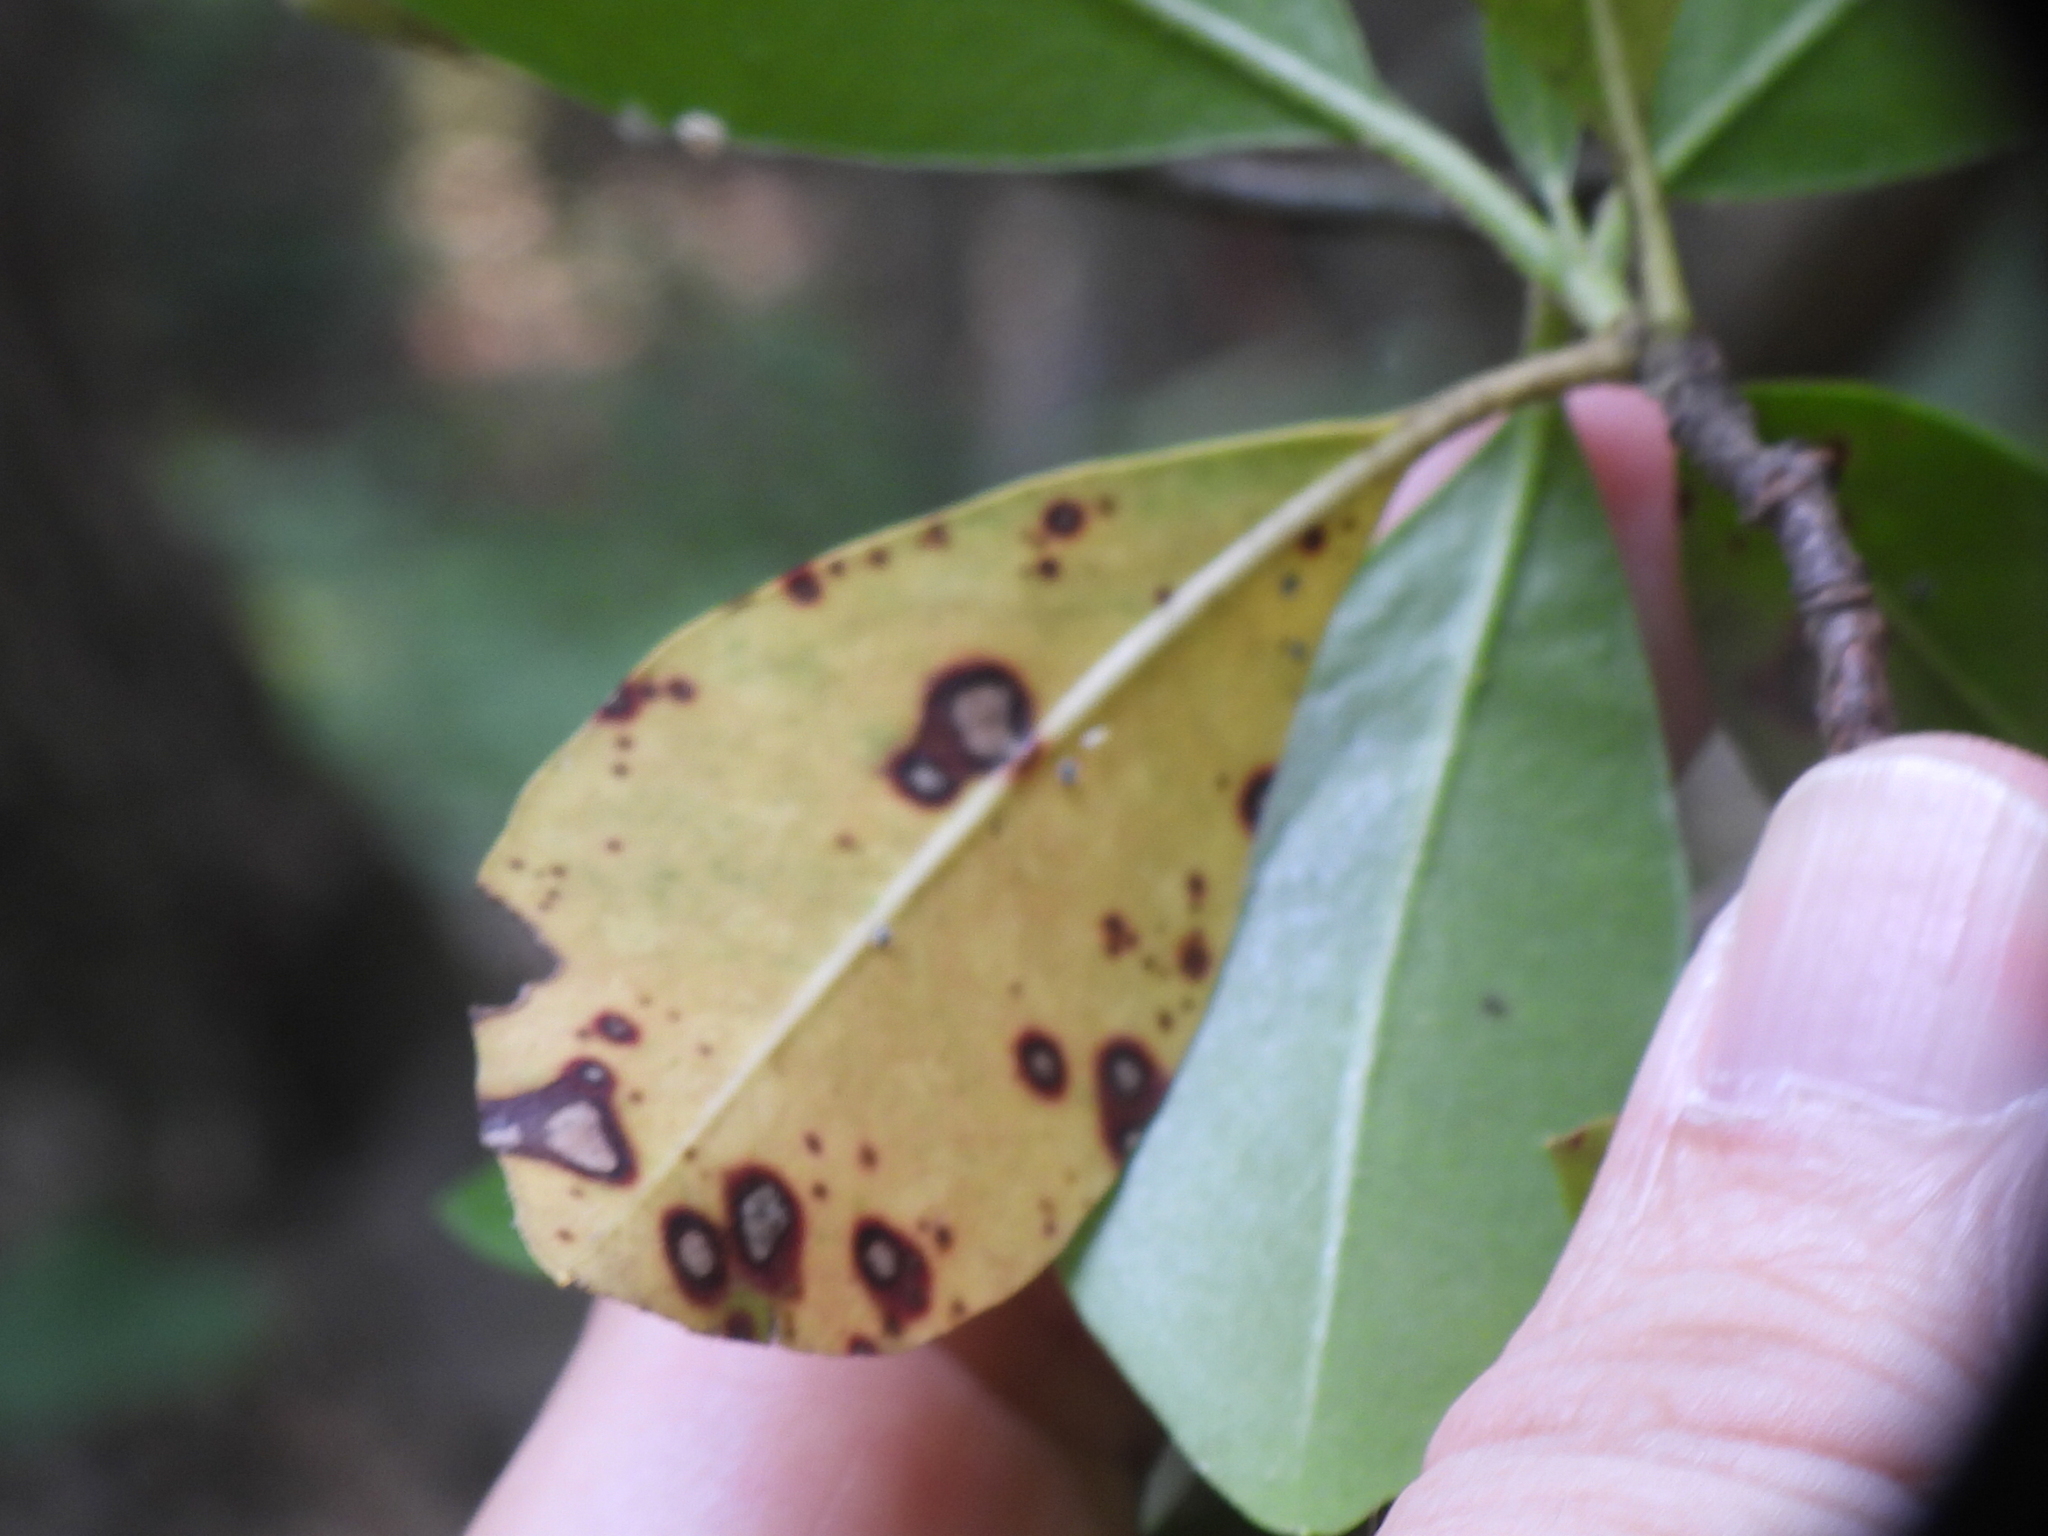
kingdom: Fungi
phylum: Ascomycota
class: Dothideomycetes
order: Mycosphaerellales
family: Mycosphaerellaceae
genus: Mycosphaerella
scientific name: Mycosphaerella colorata
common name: Mountain laurel leaf spot
